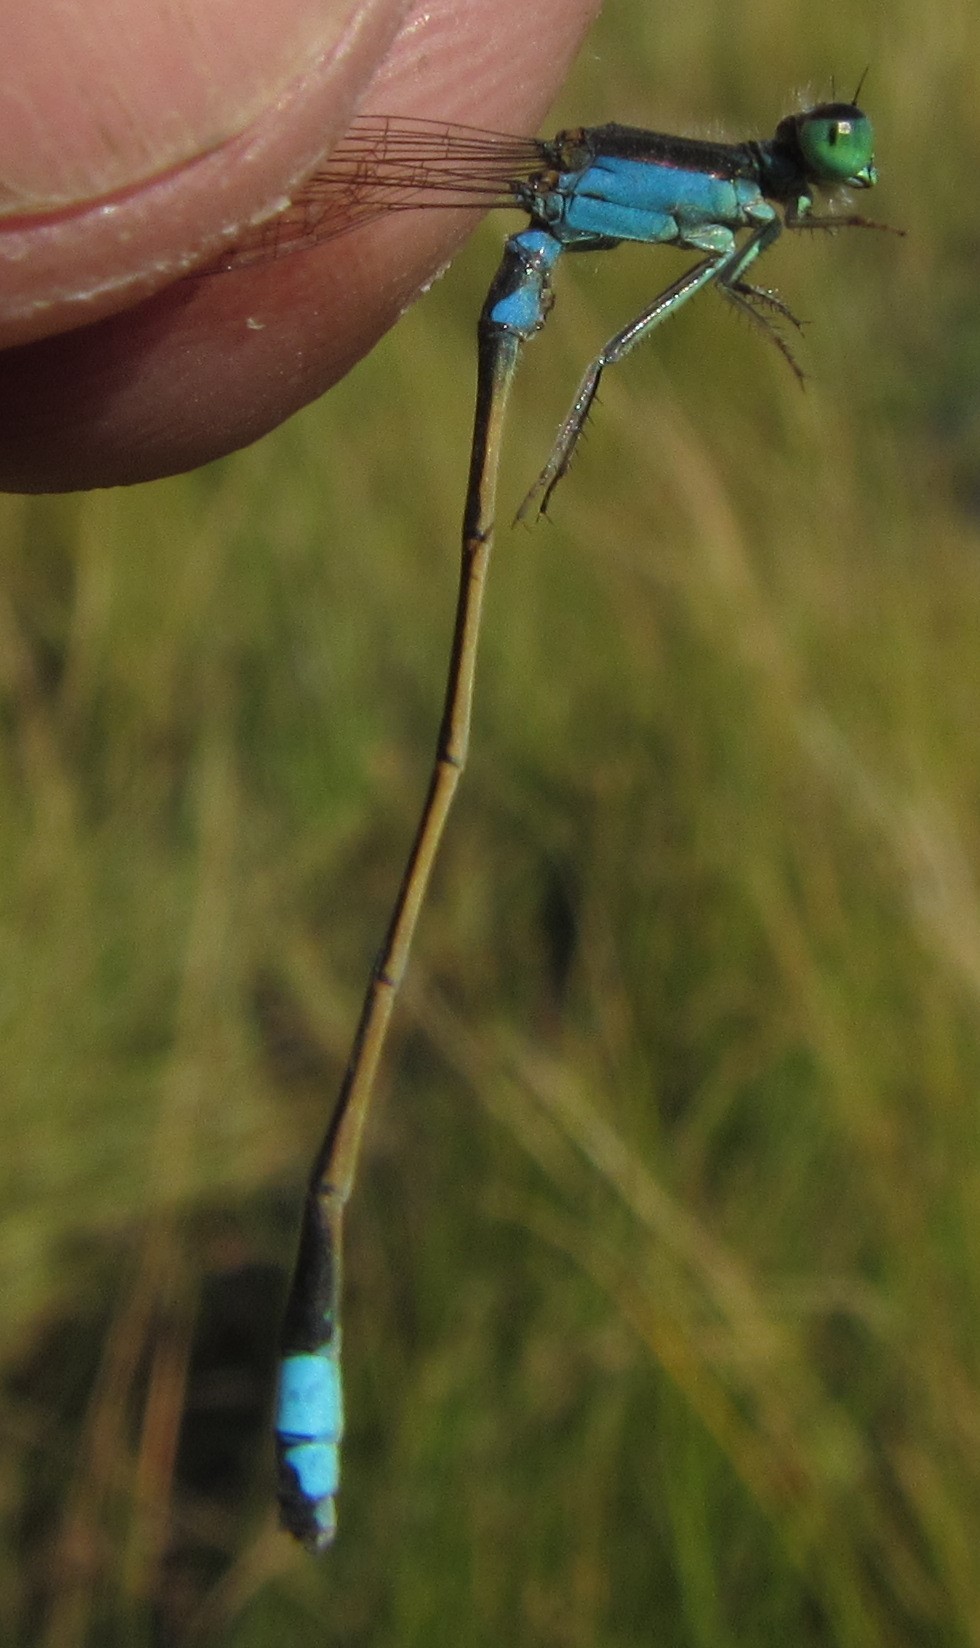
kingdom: Animalia
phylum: Arthropoda
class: Insecta
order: Odonata
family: Coenagrionidae
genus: Ischnura
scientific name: Ischnura senegalensis
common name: Tropical bluetail
